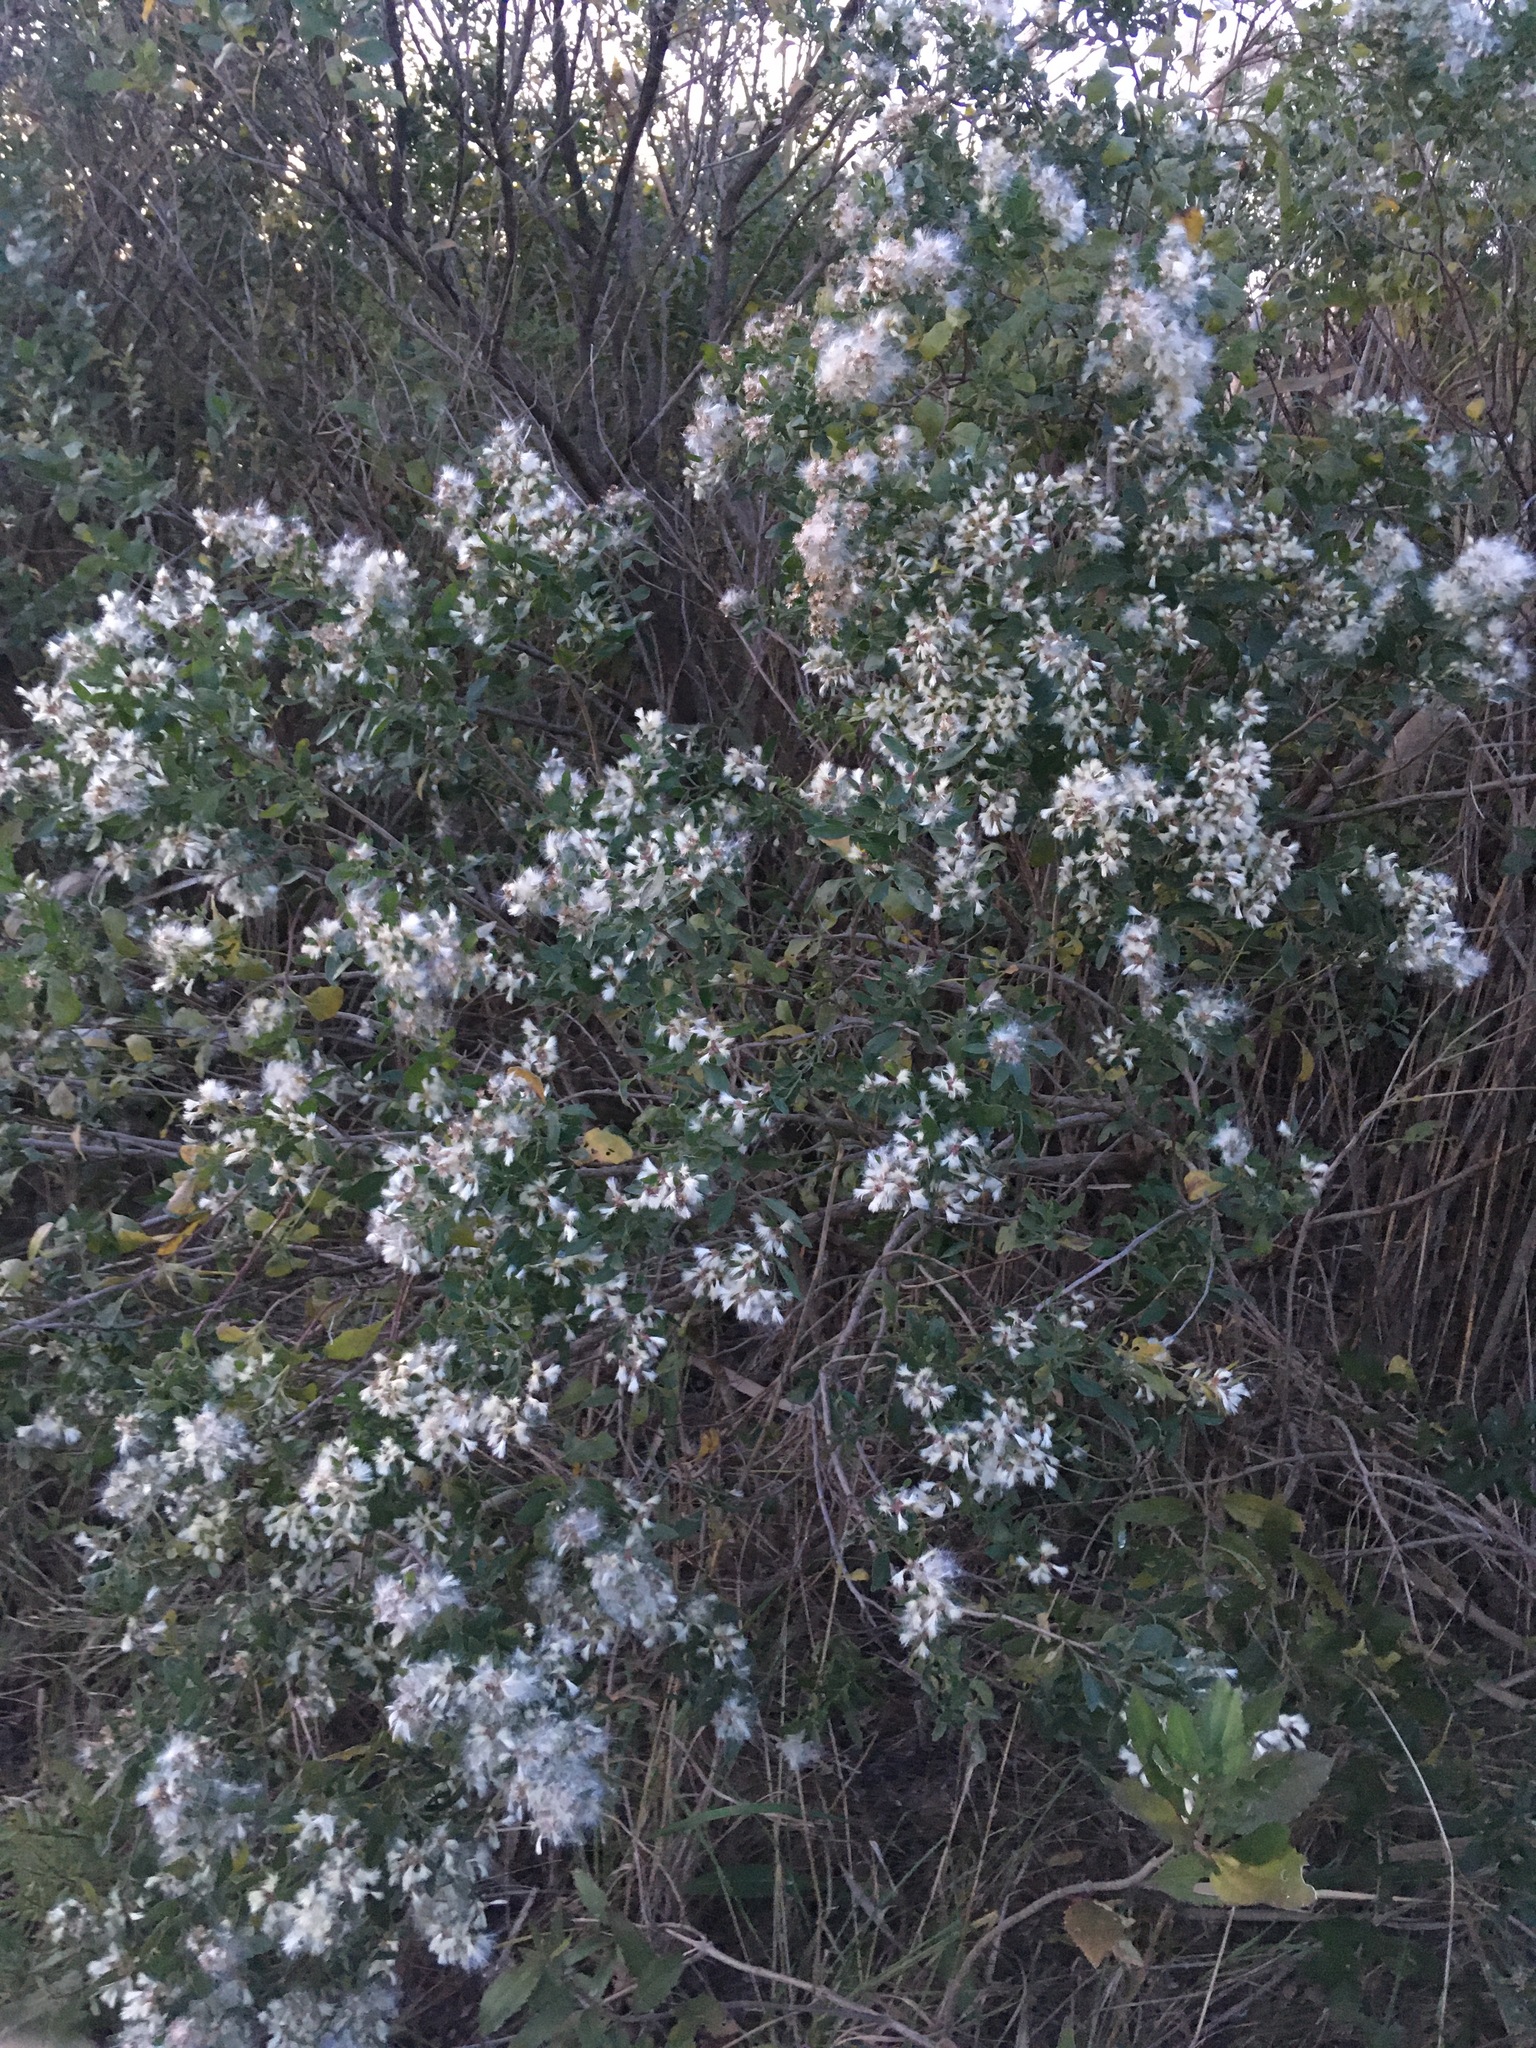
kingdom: Plantae
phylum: Tracheophyta
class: Magnoliopsida
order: Asterales
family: Asteraceae
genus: Baccharis
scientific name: Baccharis halimifolia
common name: Eastern baccharis
